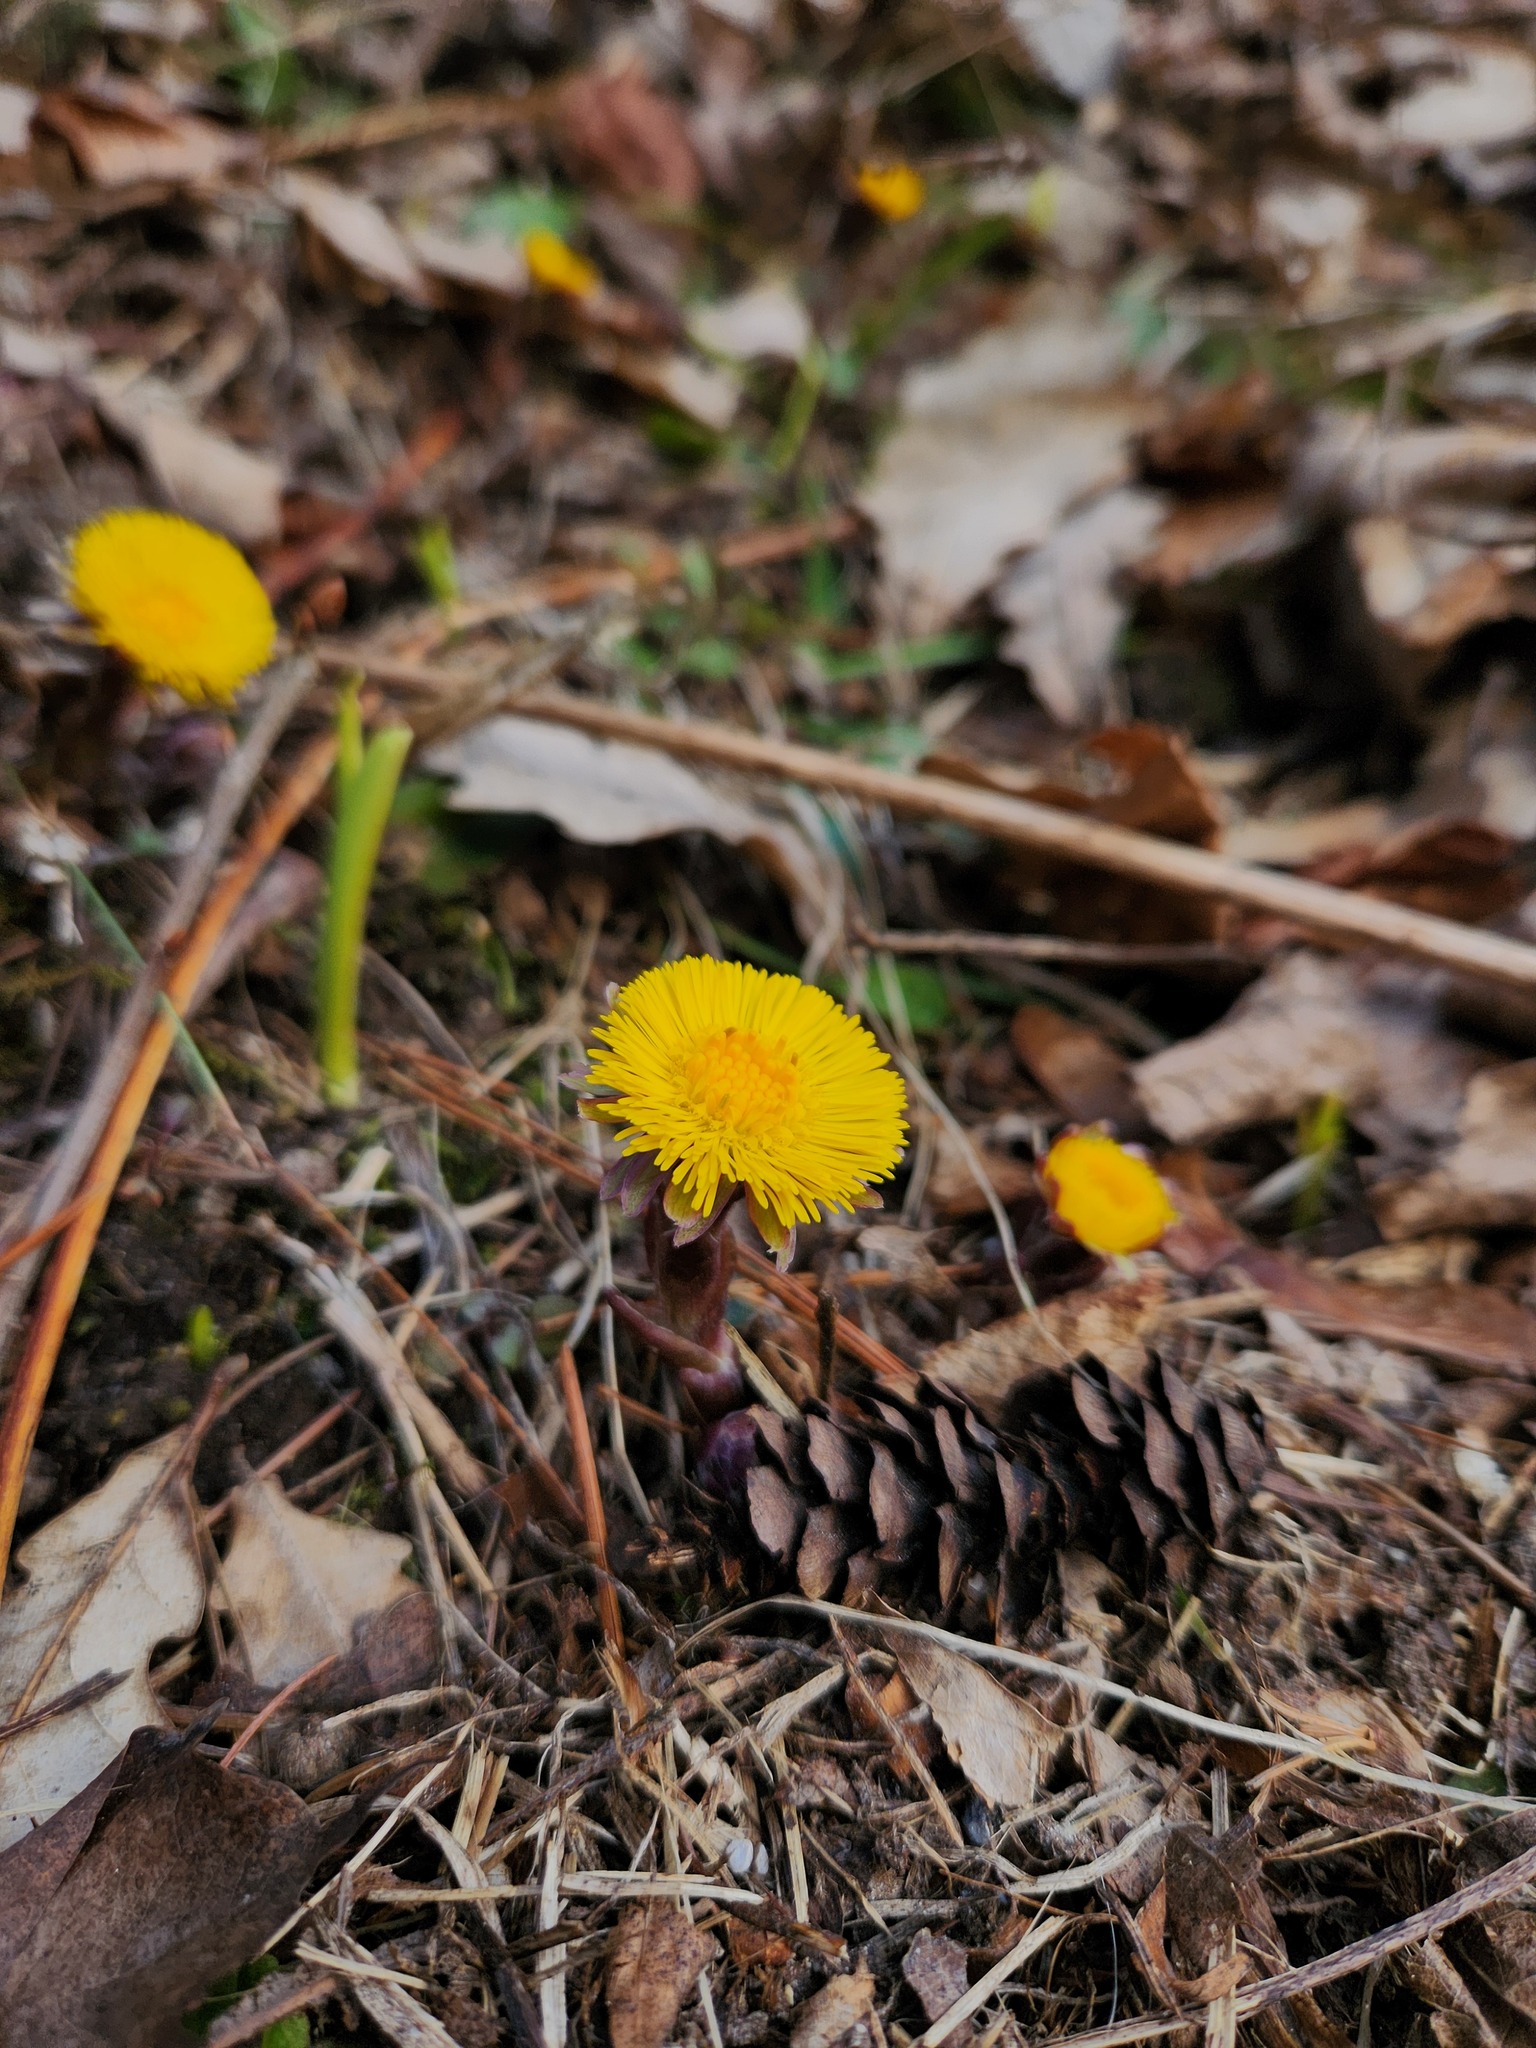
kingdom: Plantae
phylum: Tracheophyta
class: Magnoliopsida
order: Asterales
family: Asteraceae
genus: Tussilago
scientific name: Tussilago farfara
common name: Coltsfoot
